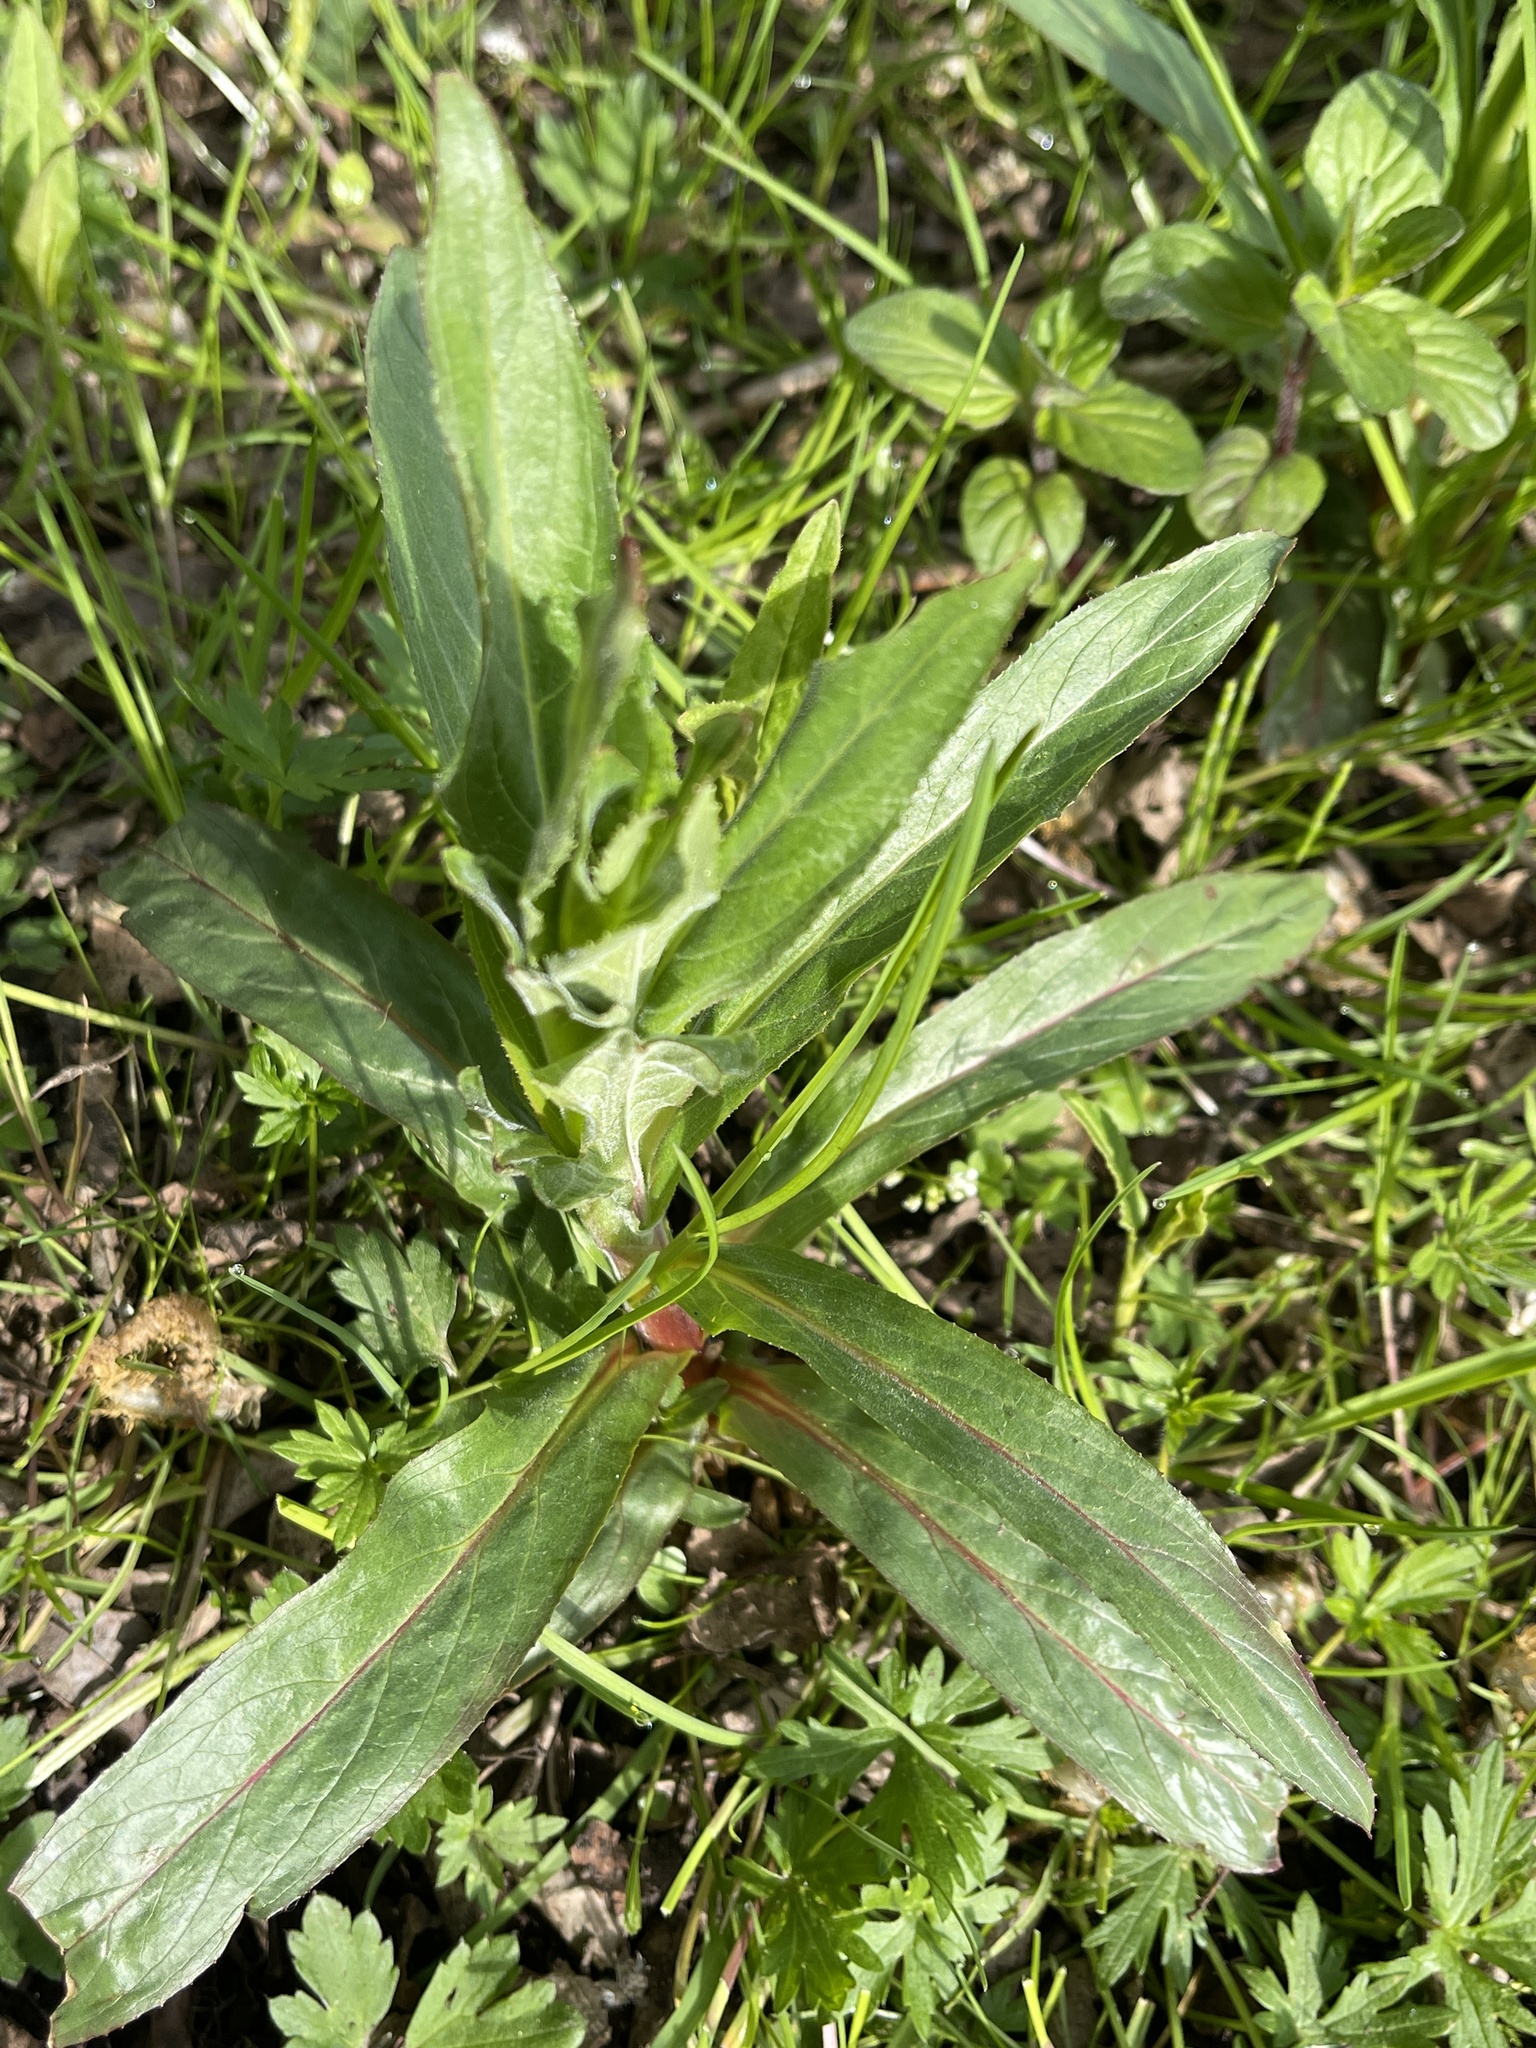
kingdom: Plantae
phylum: Tracheophyta
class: Magnoliopsida
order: Myrtales
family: Onagraceae
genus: Epilobium
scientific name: Epilobium hirsutum
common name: Great willowherb
